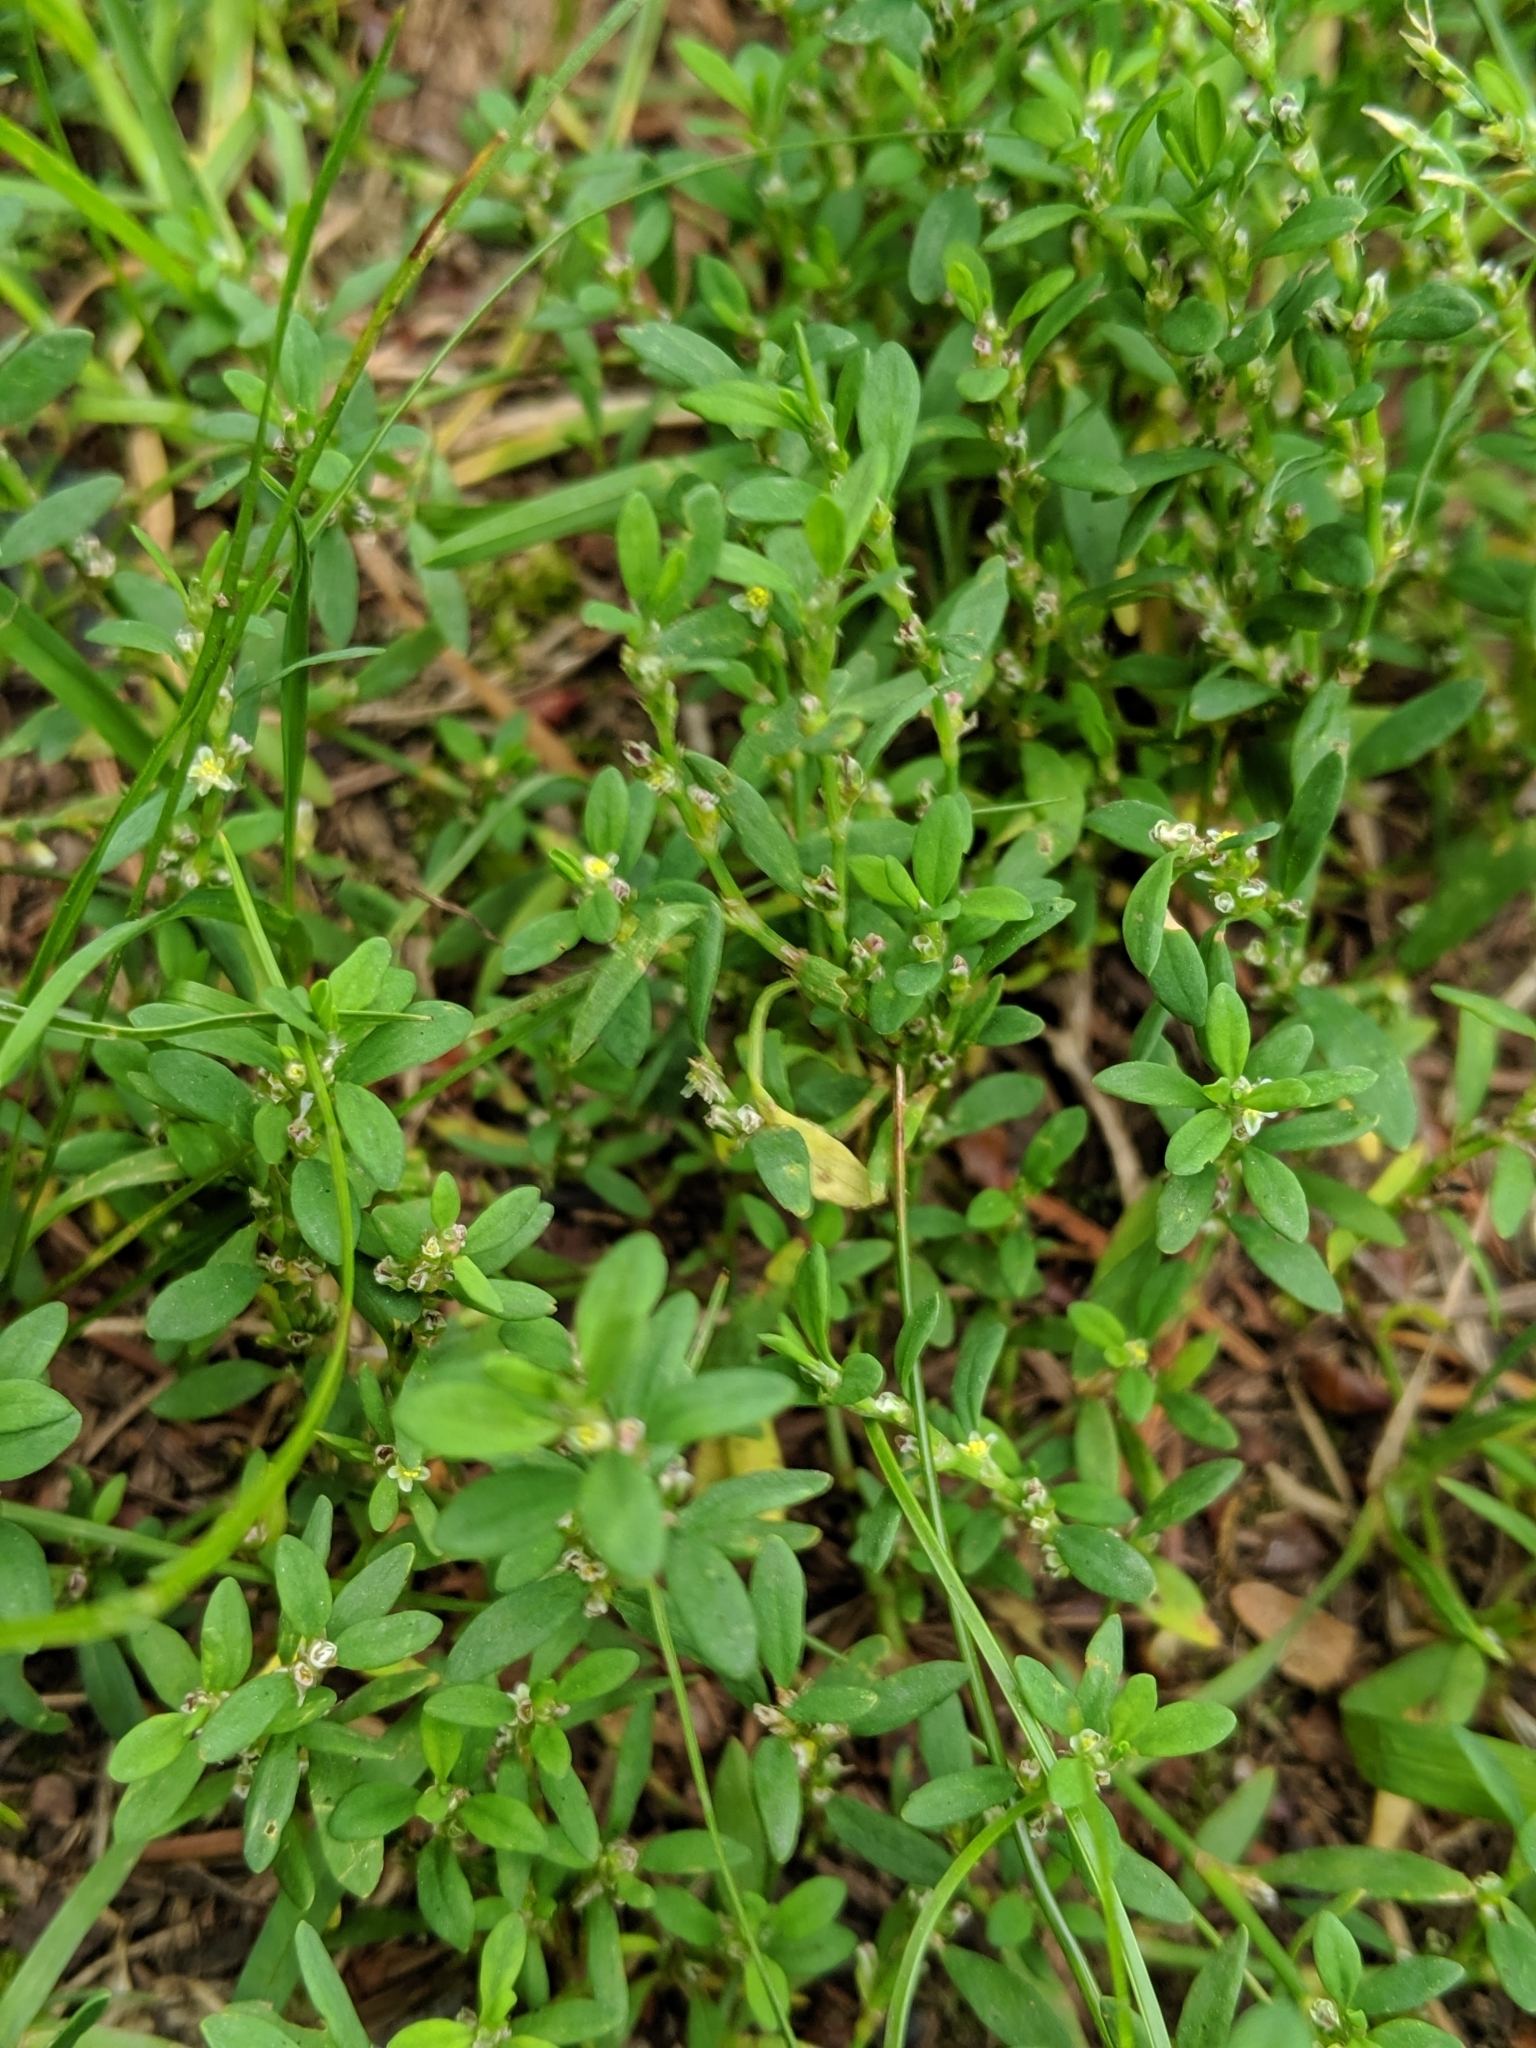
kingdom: Plantae
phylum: Tracheophyta
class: Magnoliopsida
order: Caryophyllales
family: Polygonaceae
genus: Polygonum
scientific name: Polygonum aviculare
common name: Prostrate knotweed
